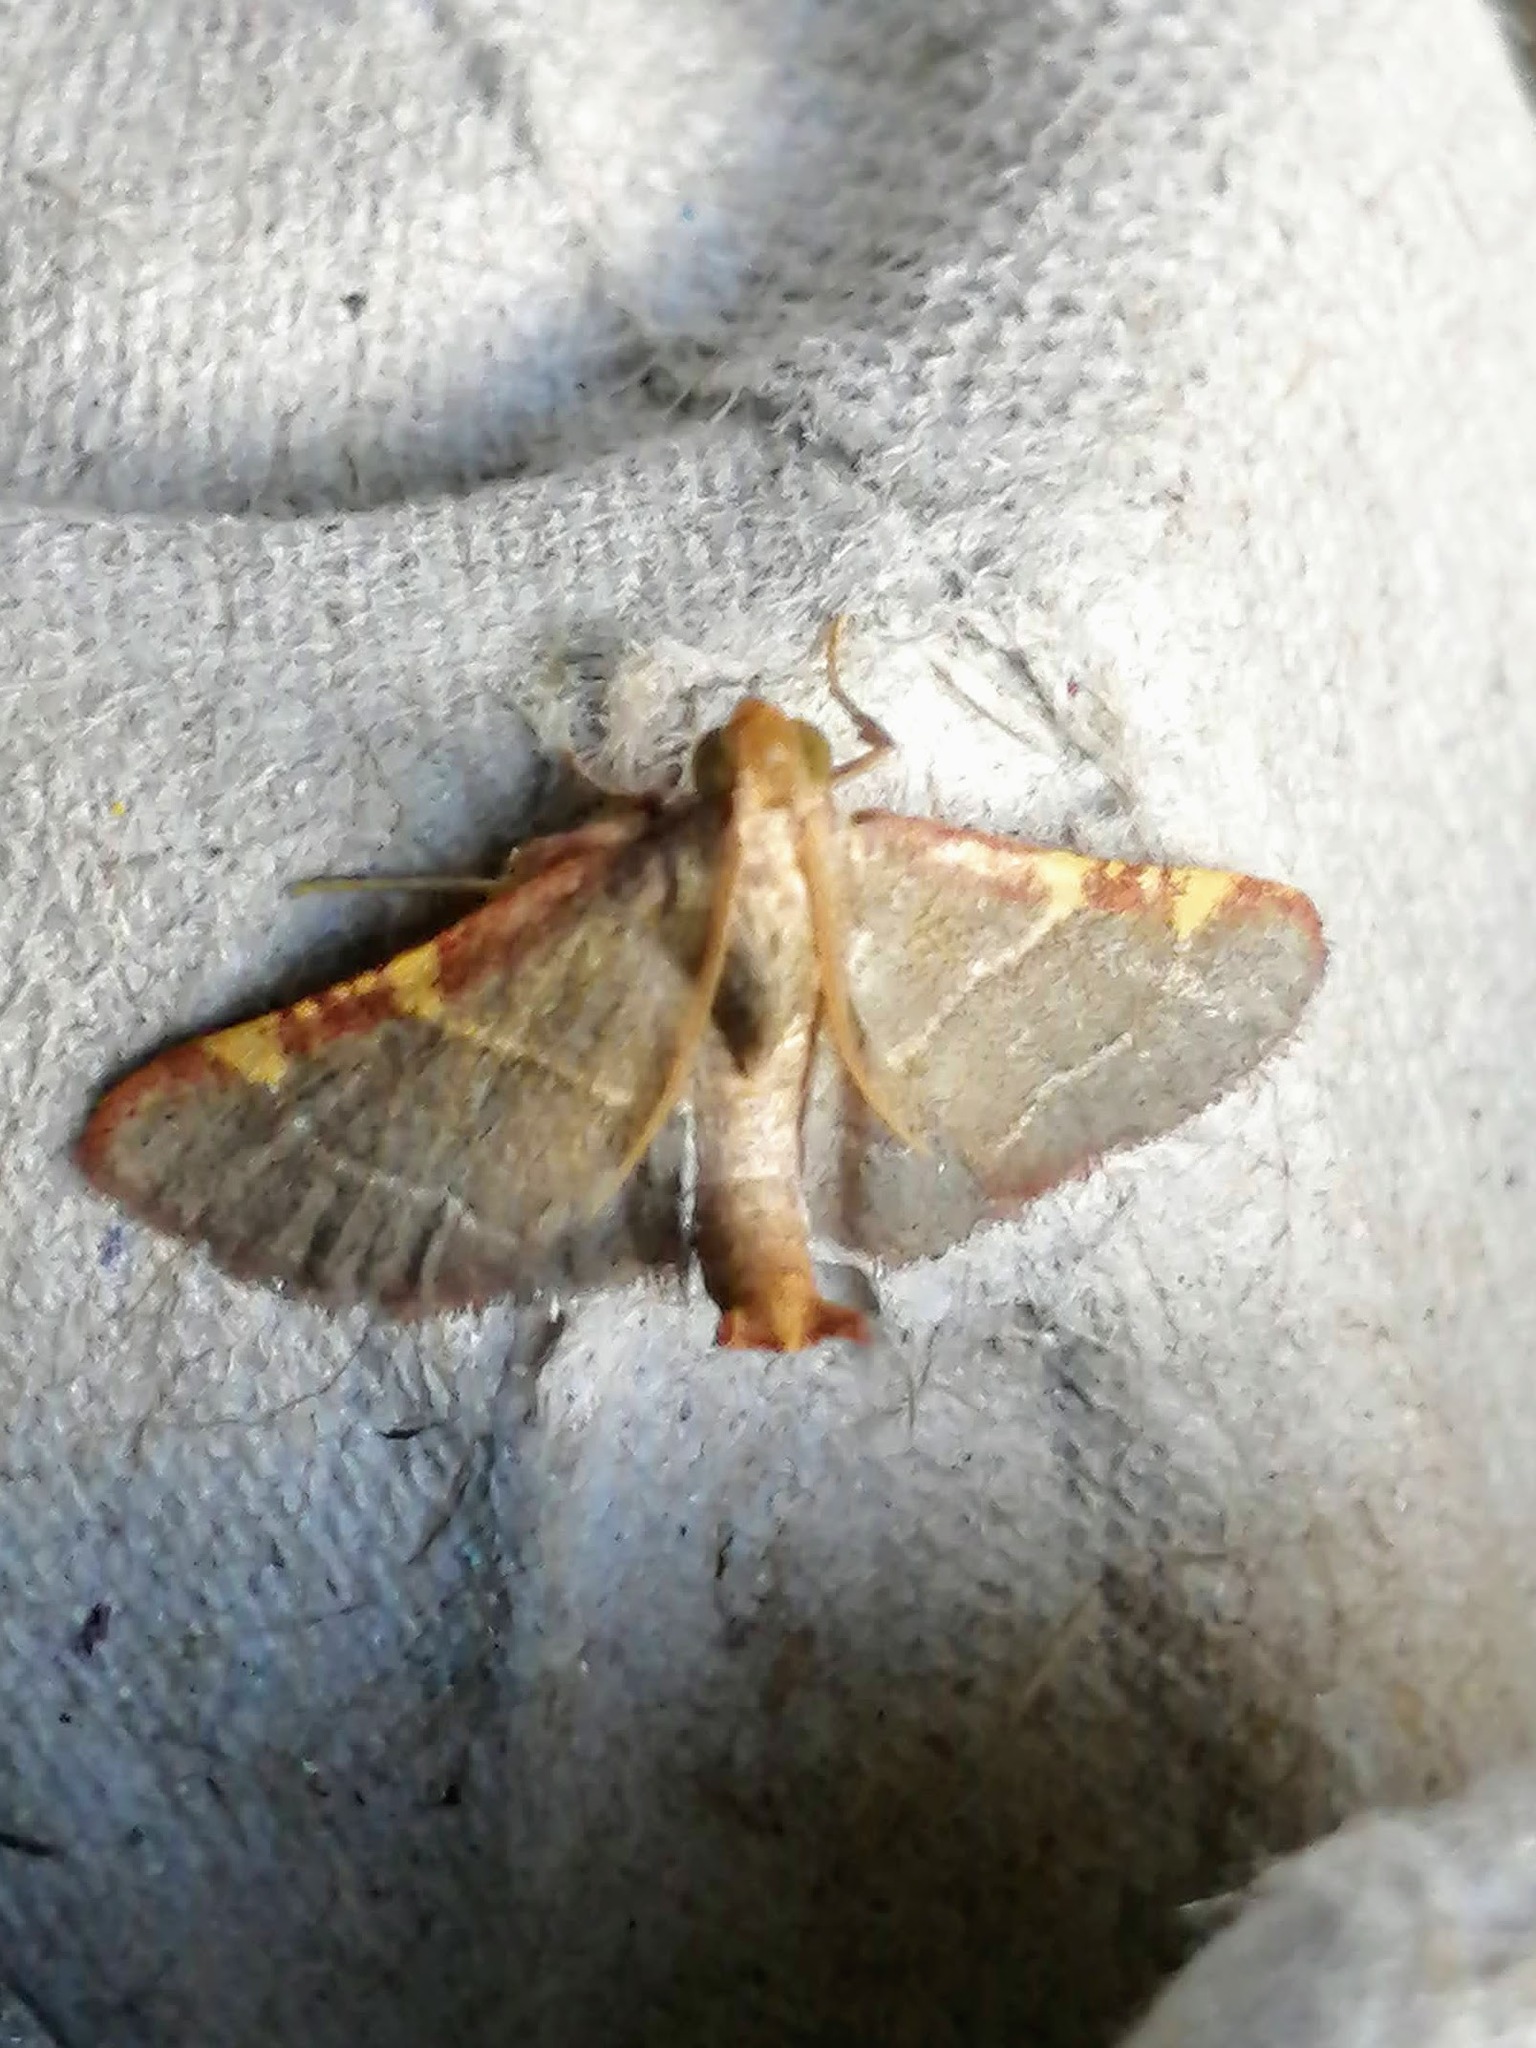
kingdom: Animalia
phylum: Arthropoda
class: Insecta
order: Lepidoptera
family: Pyralidae
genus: Hypsopygia
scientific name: Hypsopygia binodulalis
